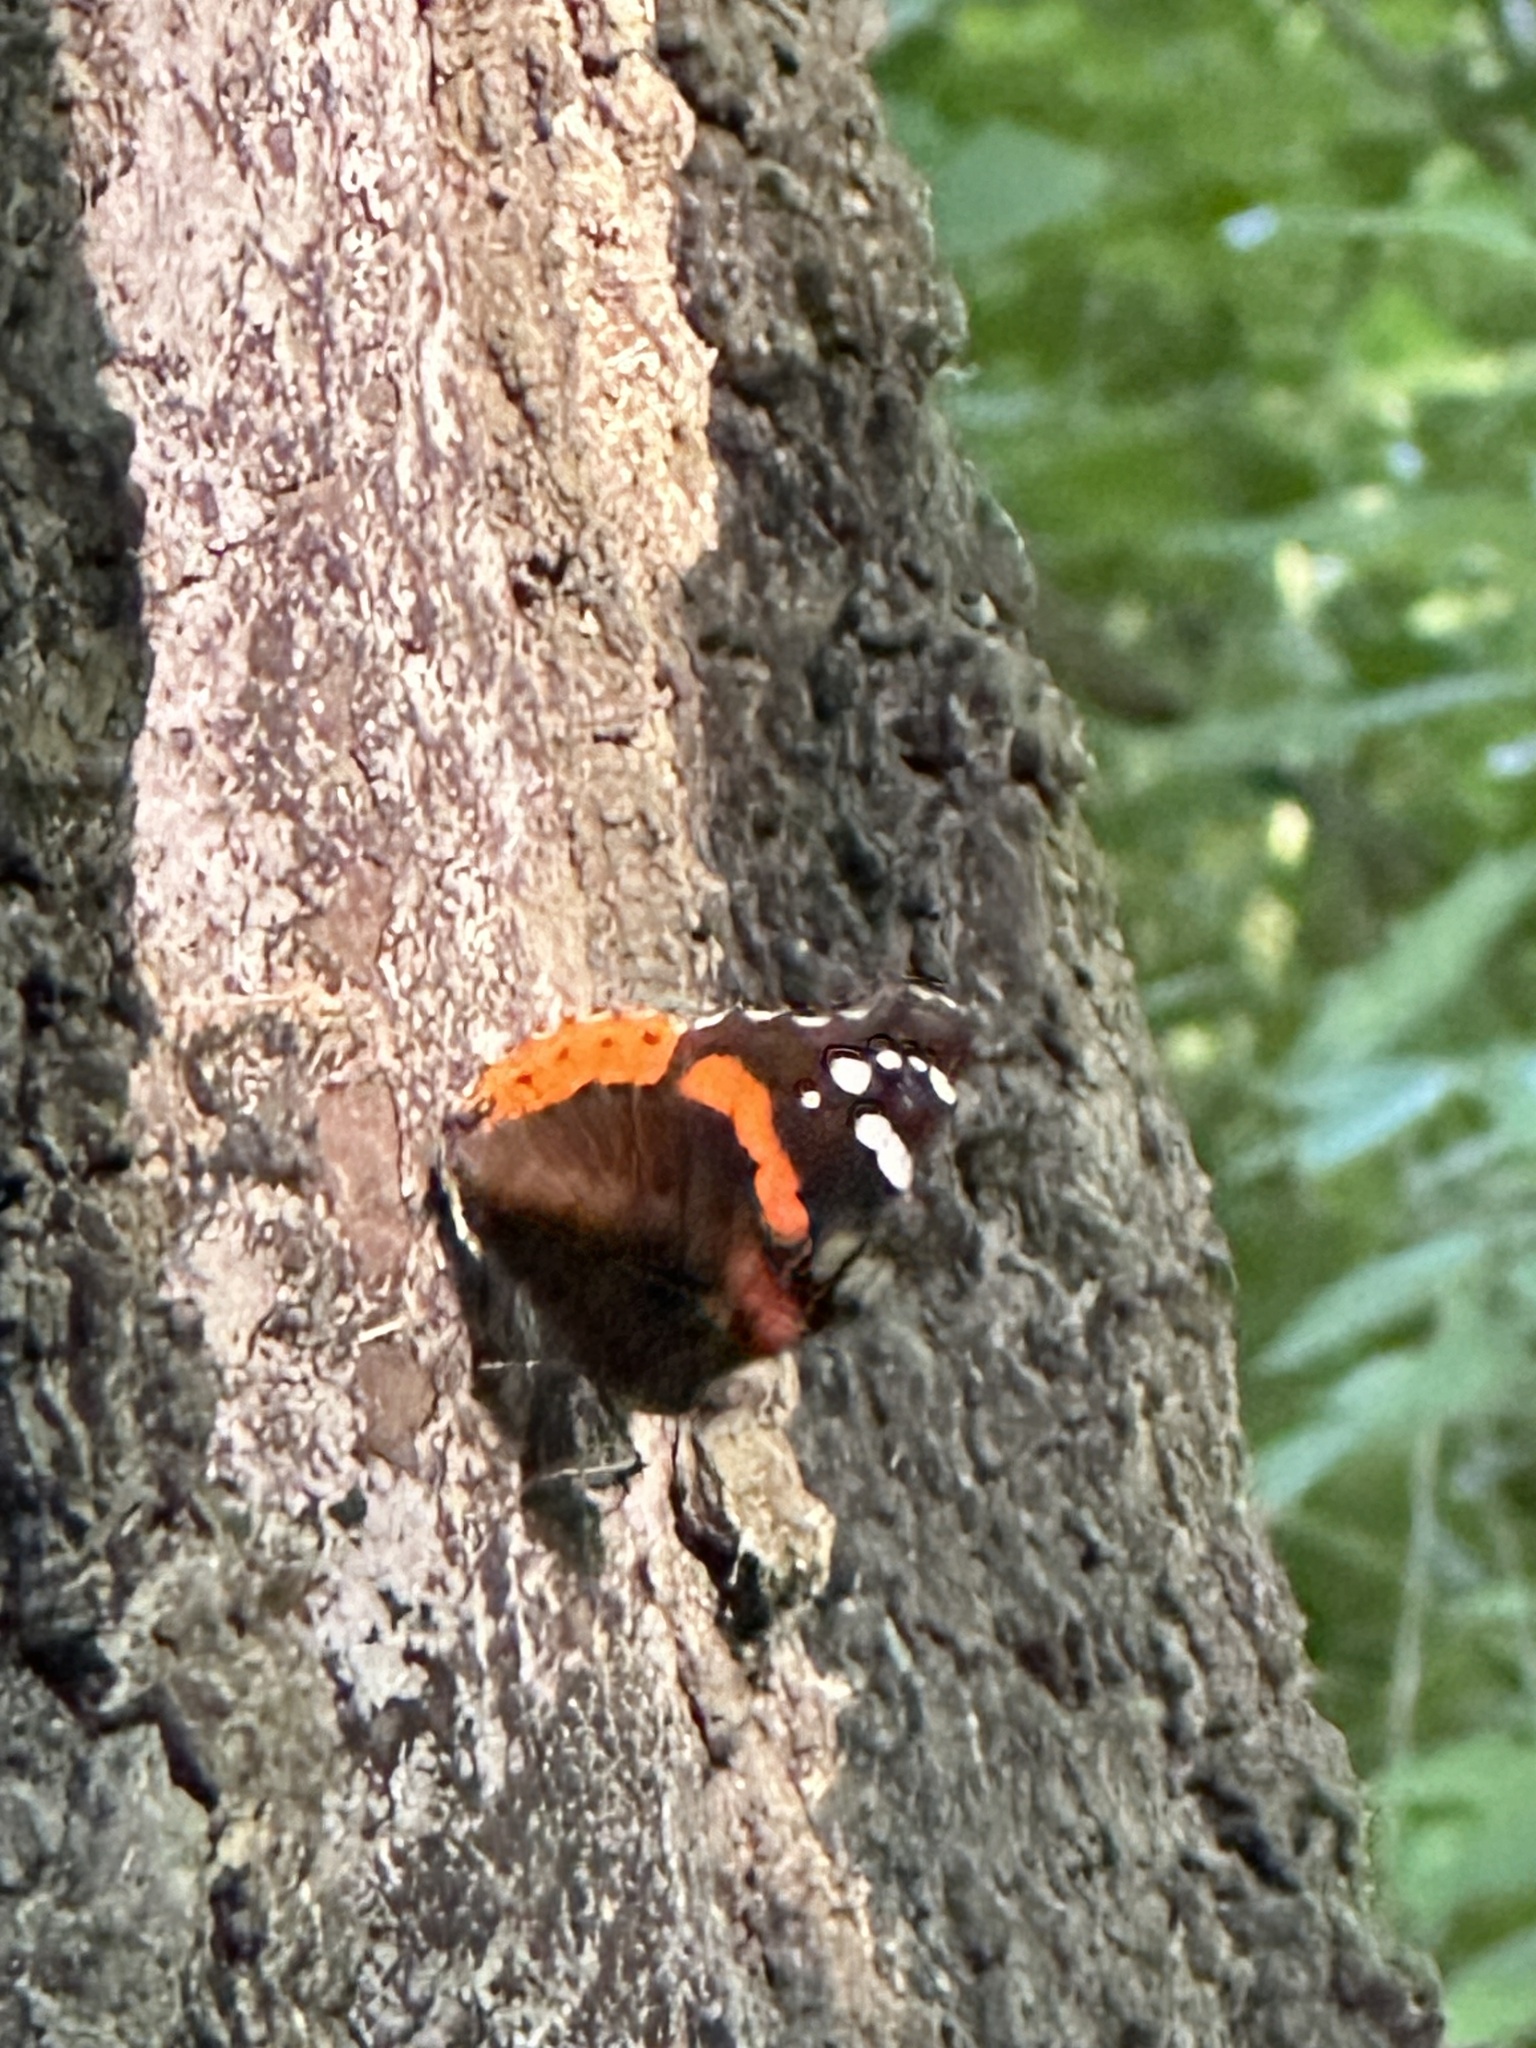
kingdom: Animalia
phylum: Arthropoda
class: Insecta
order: Lepidoptera
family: Nymphalidae
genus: Vanessa
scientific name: Vanessa atalanta
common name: Red admiral
